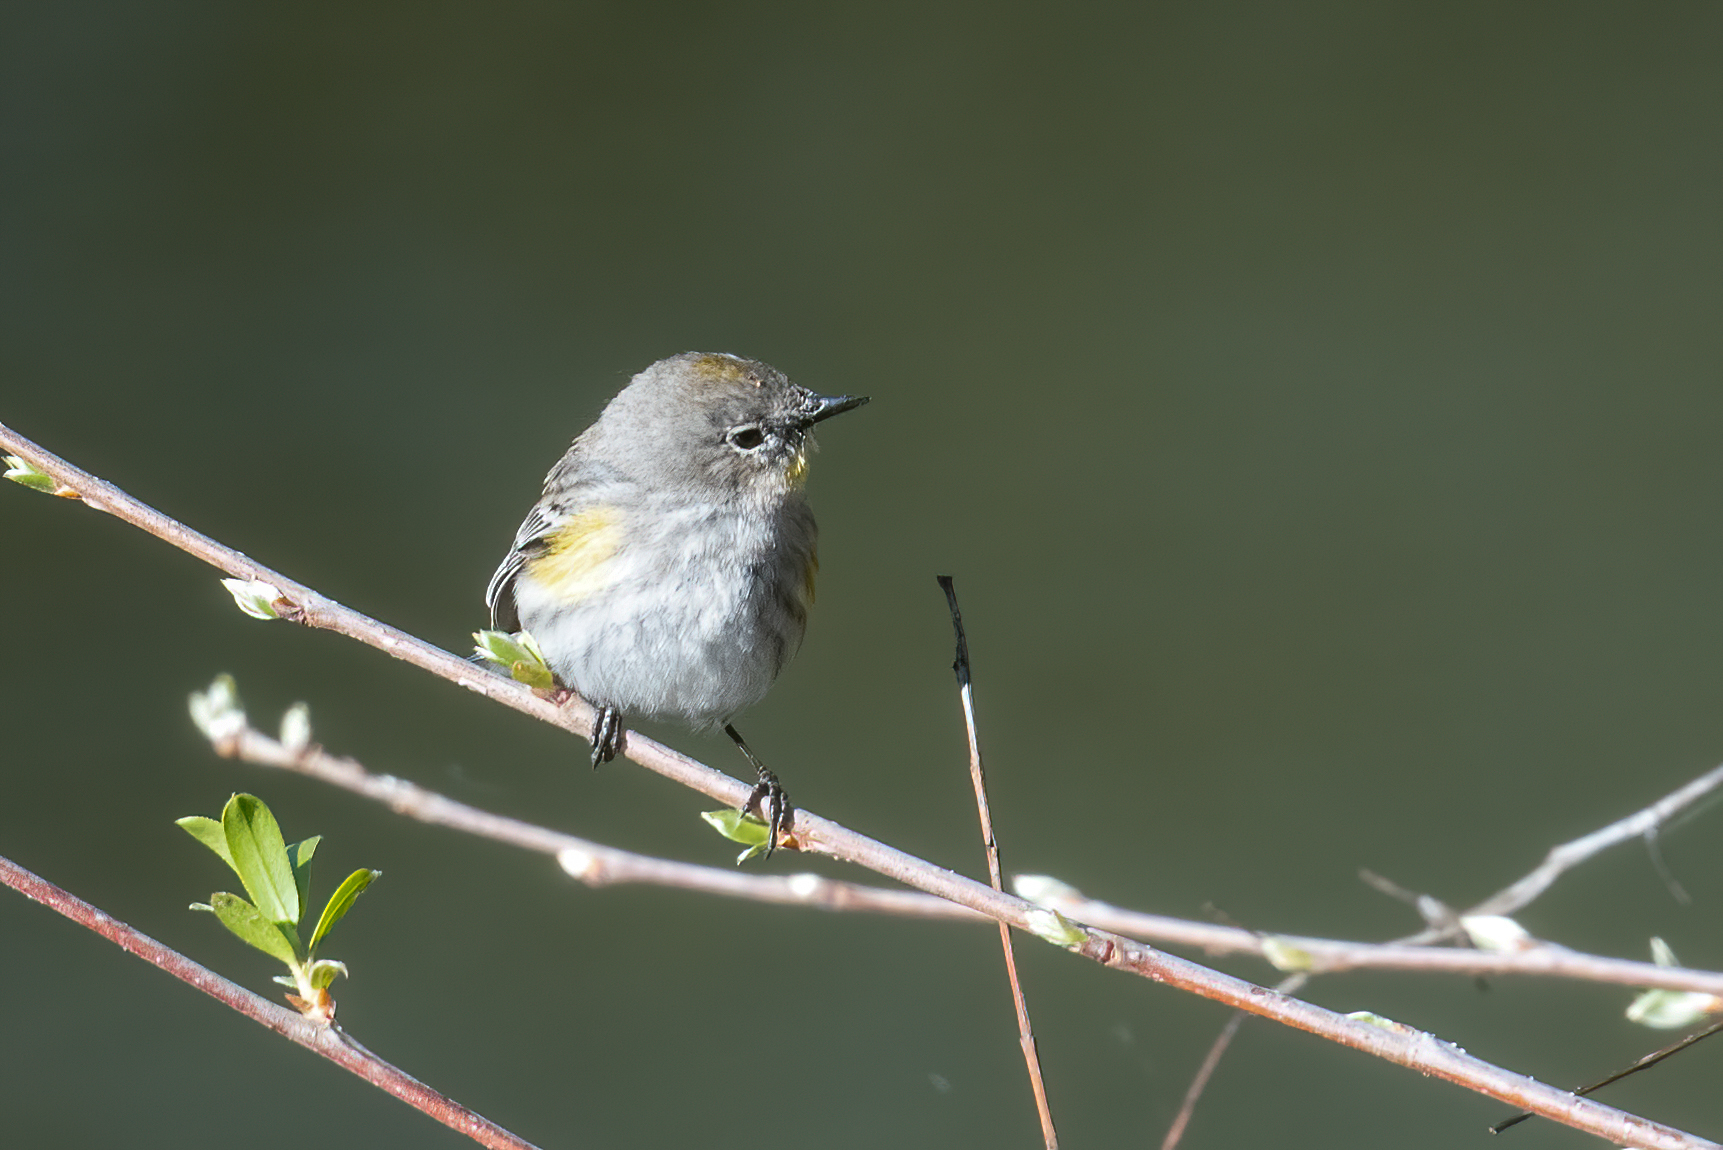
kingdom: Animalia
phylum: Chordata
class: Aves
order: Passeriformes
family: Parulidae
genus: Setophaga
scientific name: Setophaga coronata
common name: Myrtle warbler
